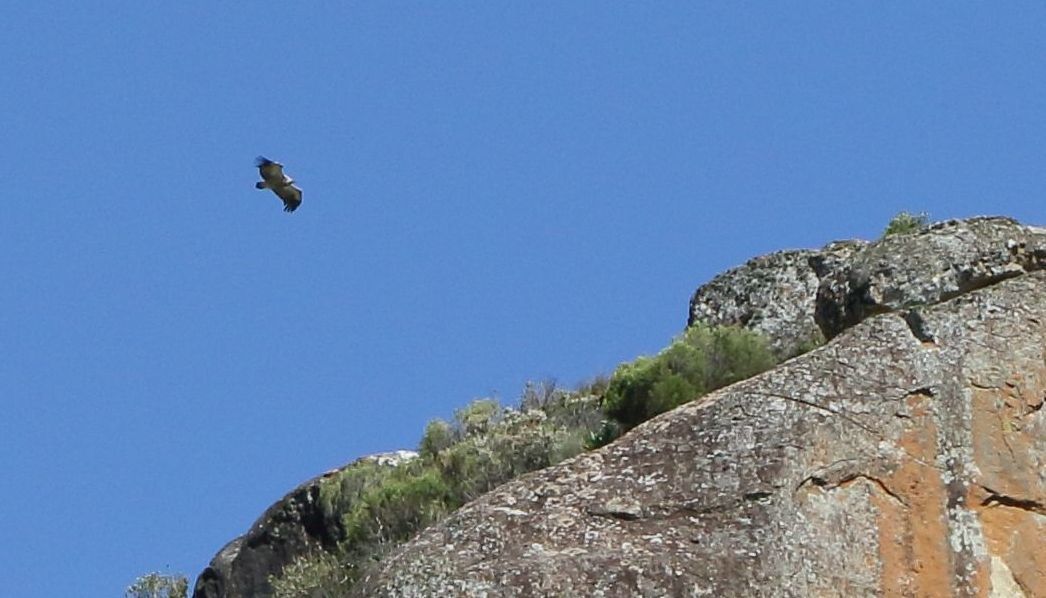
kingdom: Animalia
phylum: Chordata
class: Aves
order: Accipitriformes
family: Accipitridae
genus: Gyps
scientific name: Gyps coprotheres
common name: Cape vulture
